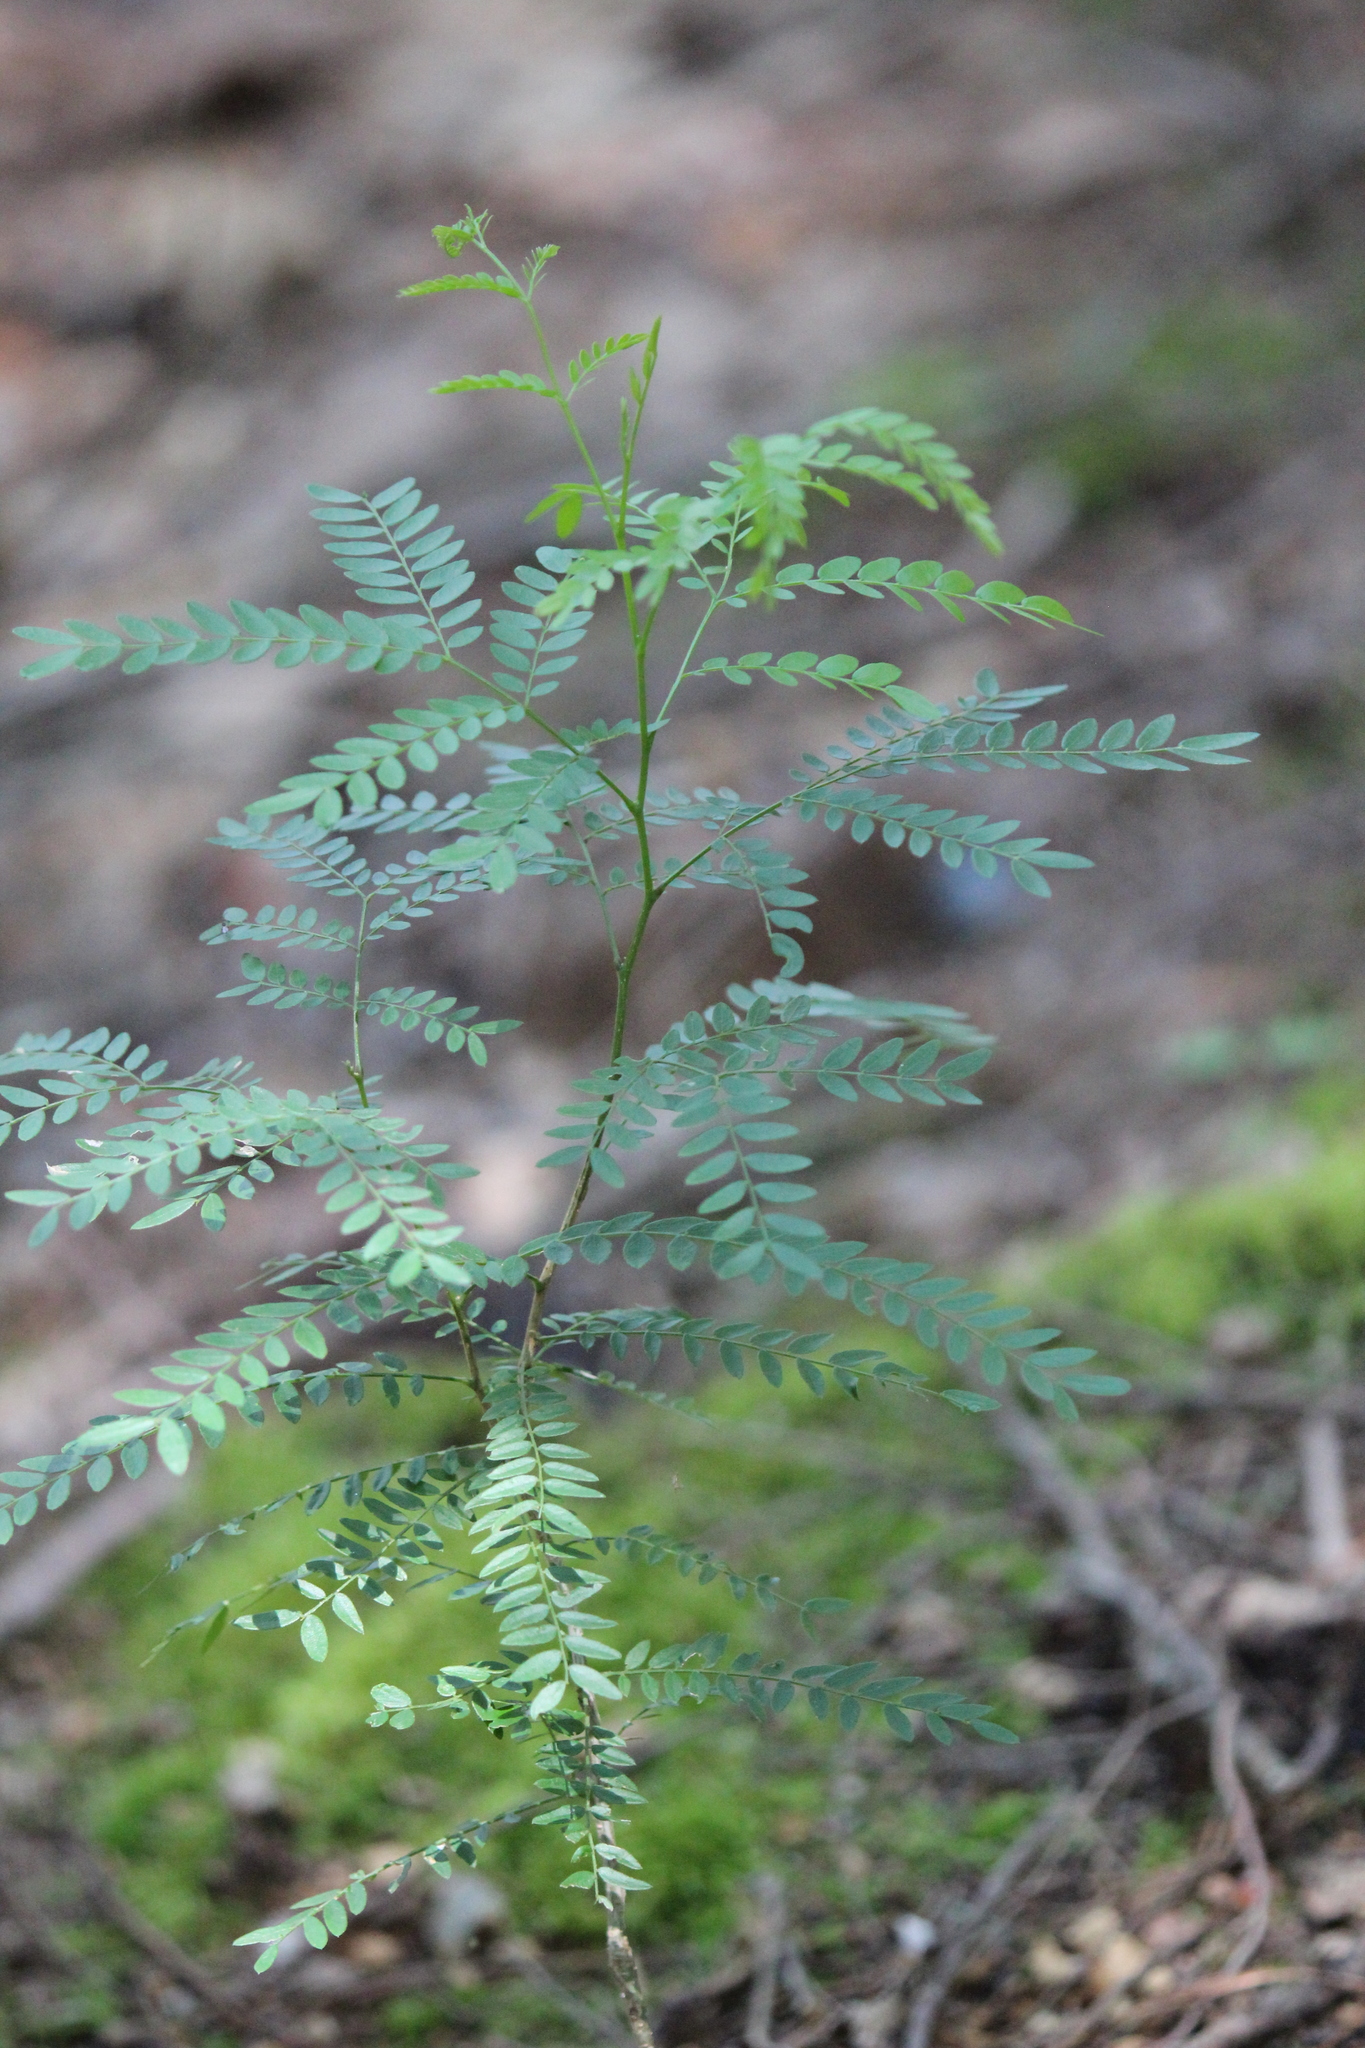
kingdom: Plantae
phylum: Tracheophyta
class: Magnoliopsida
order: Fabales
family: Fabaceae
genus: Gleditsia
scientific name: Gleditsia triacanthos
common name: Common honeylocust
